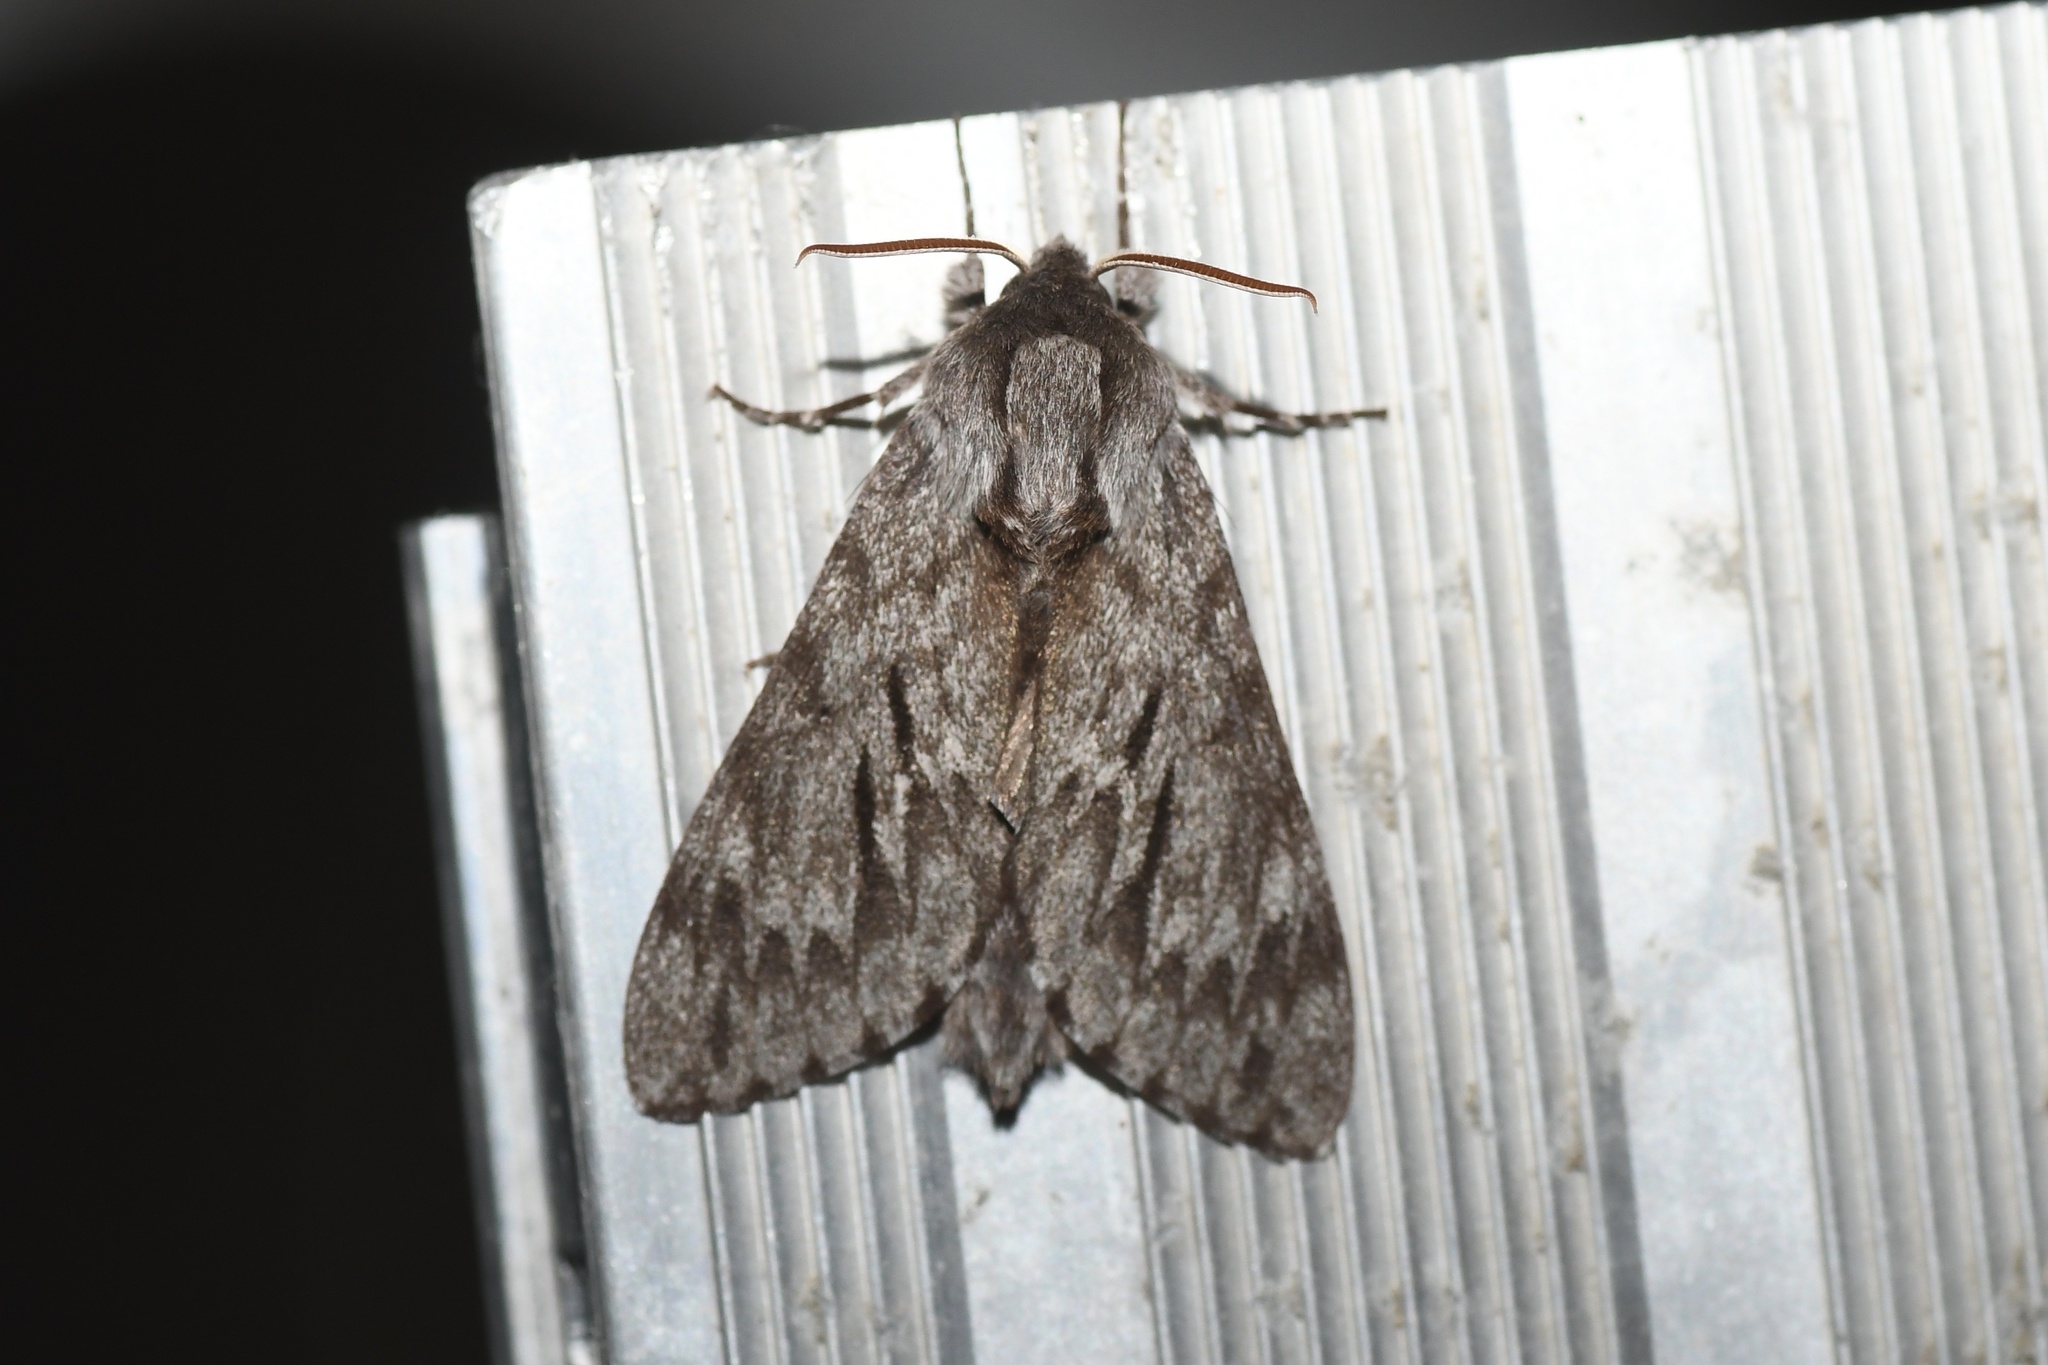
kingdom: Animalia
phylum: Arthropoda
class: Insecta
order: Lepidoptera
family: Sphingidae
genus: Lapara
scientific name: Lapara bombycoides
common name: Northern pine sphinx
